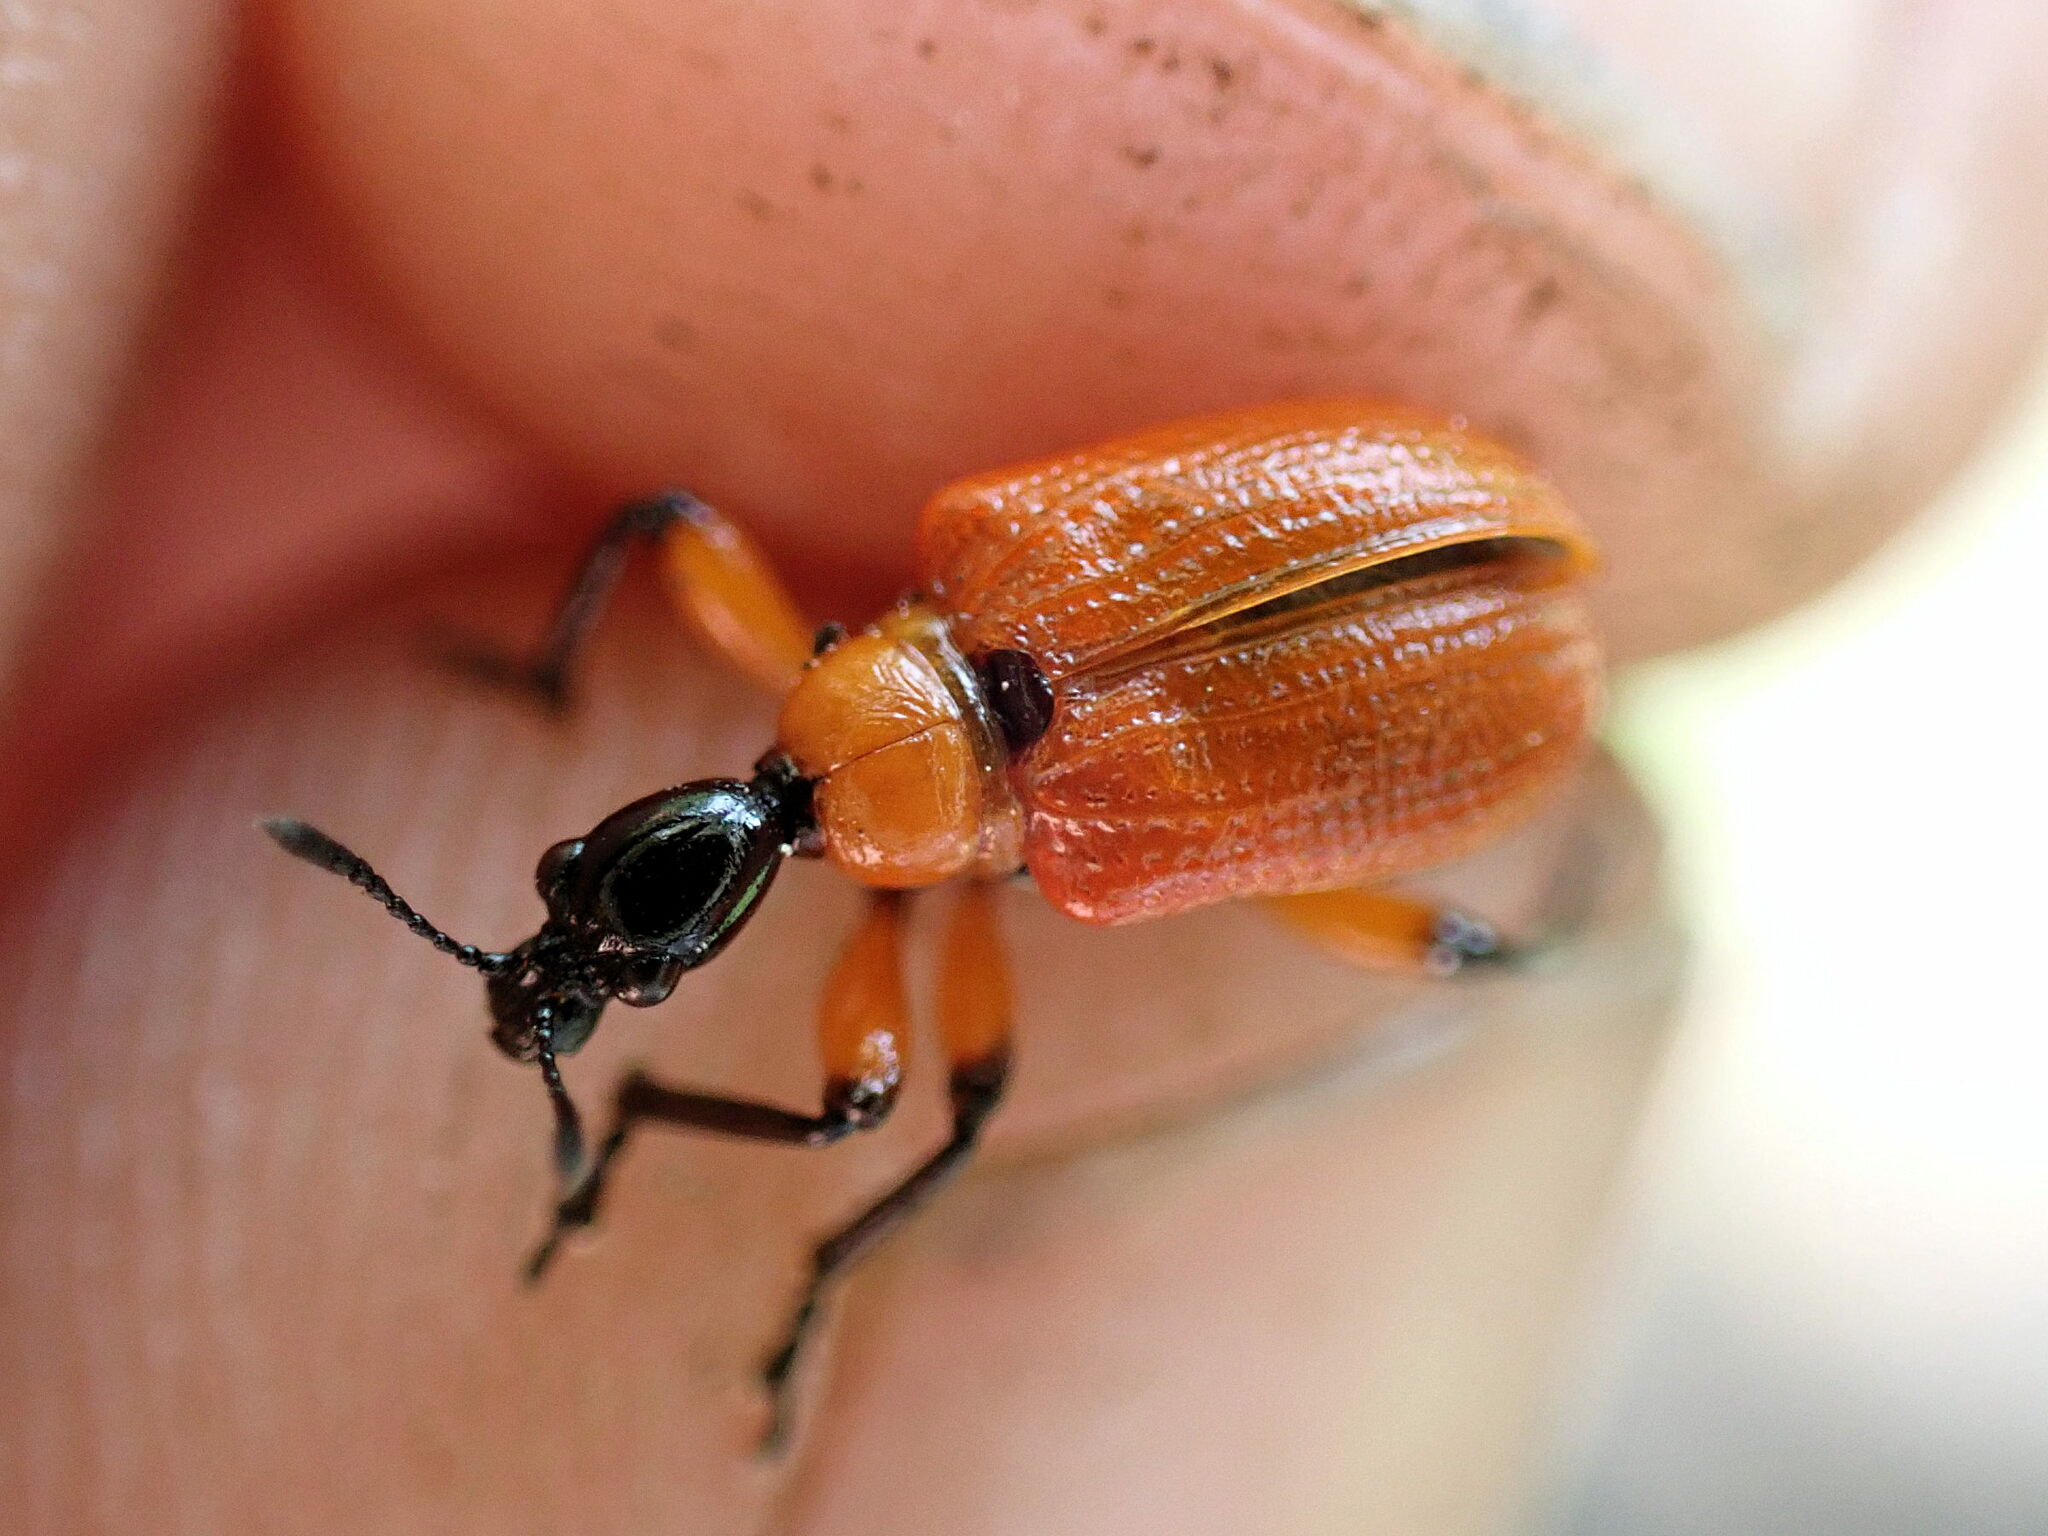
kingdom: Animalia
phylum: Arthropoda
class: Insecta
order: Coleoptera
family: Attelabidae
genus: Apoderus
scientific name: Apoderus coryli
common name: Hazel leaf roller
